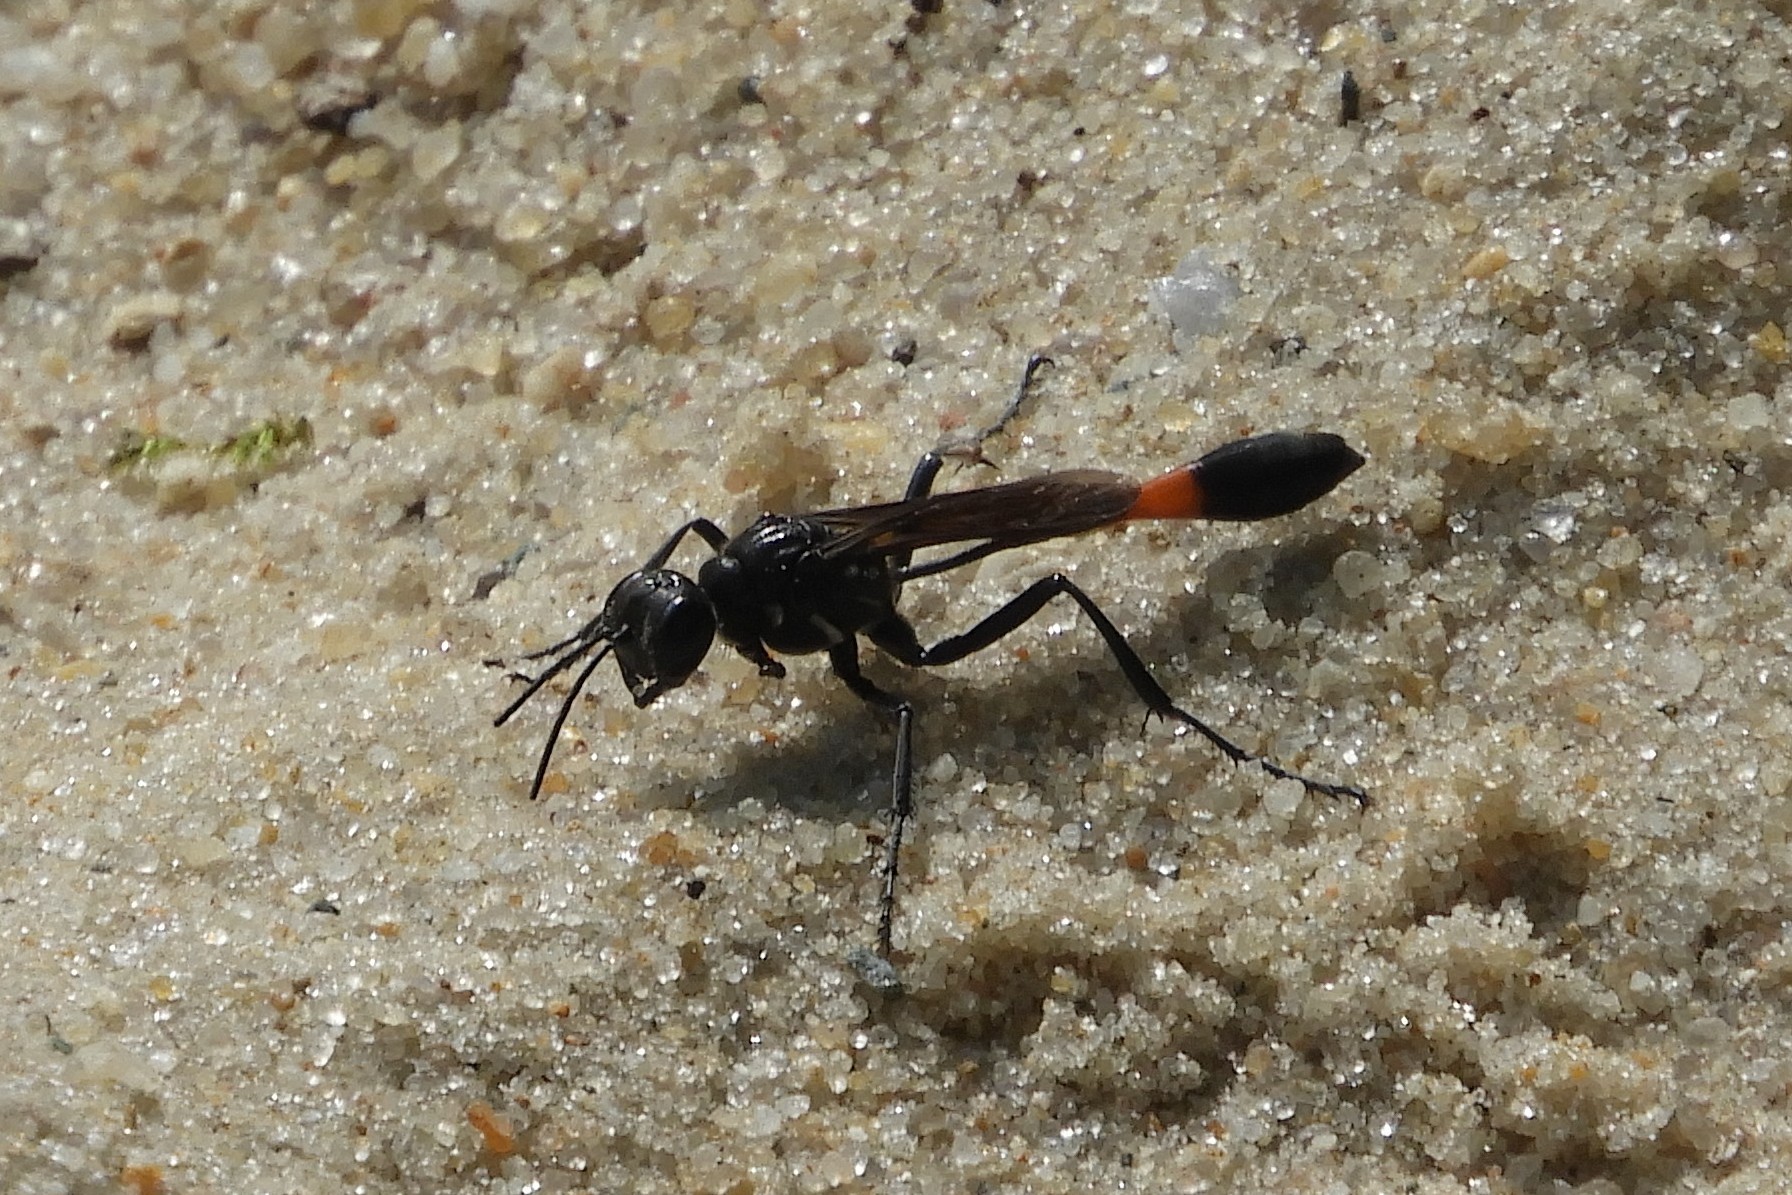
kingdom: Animalia
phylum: Arthropoda
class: Insecta
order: Hymenoptera
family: Sphecidae
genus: Ammophila
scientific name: Ammophila nigricans
